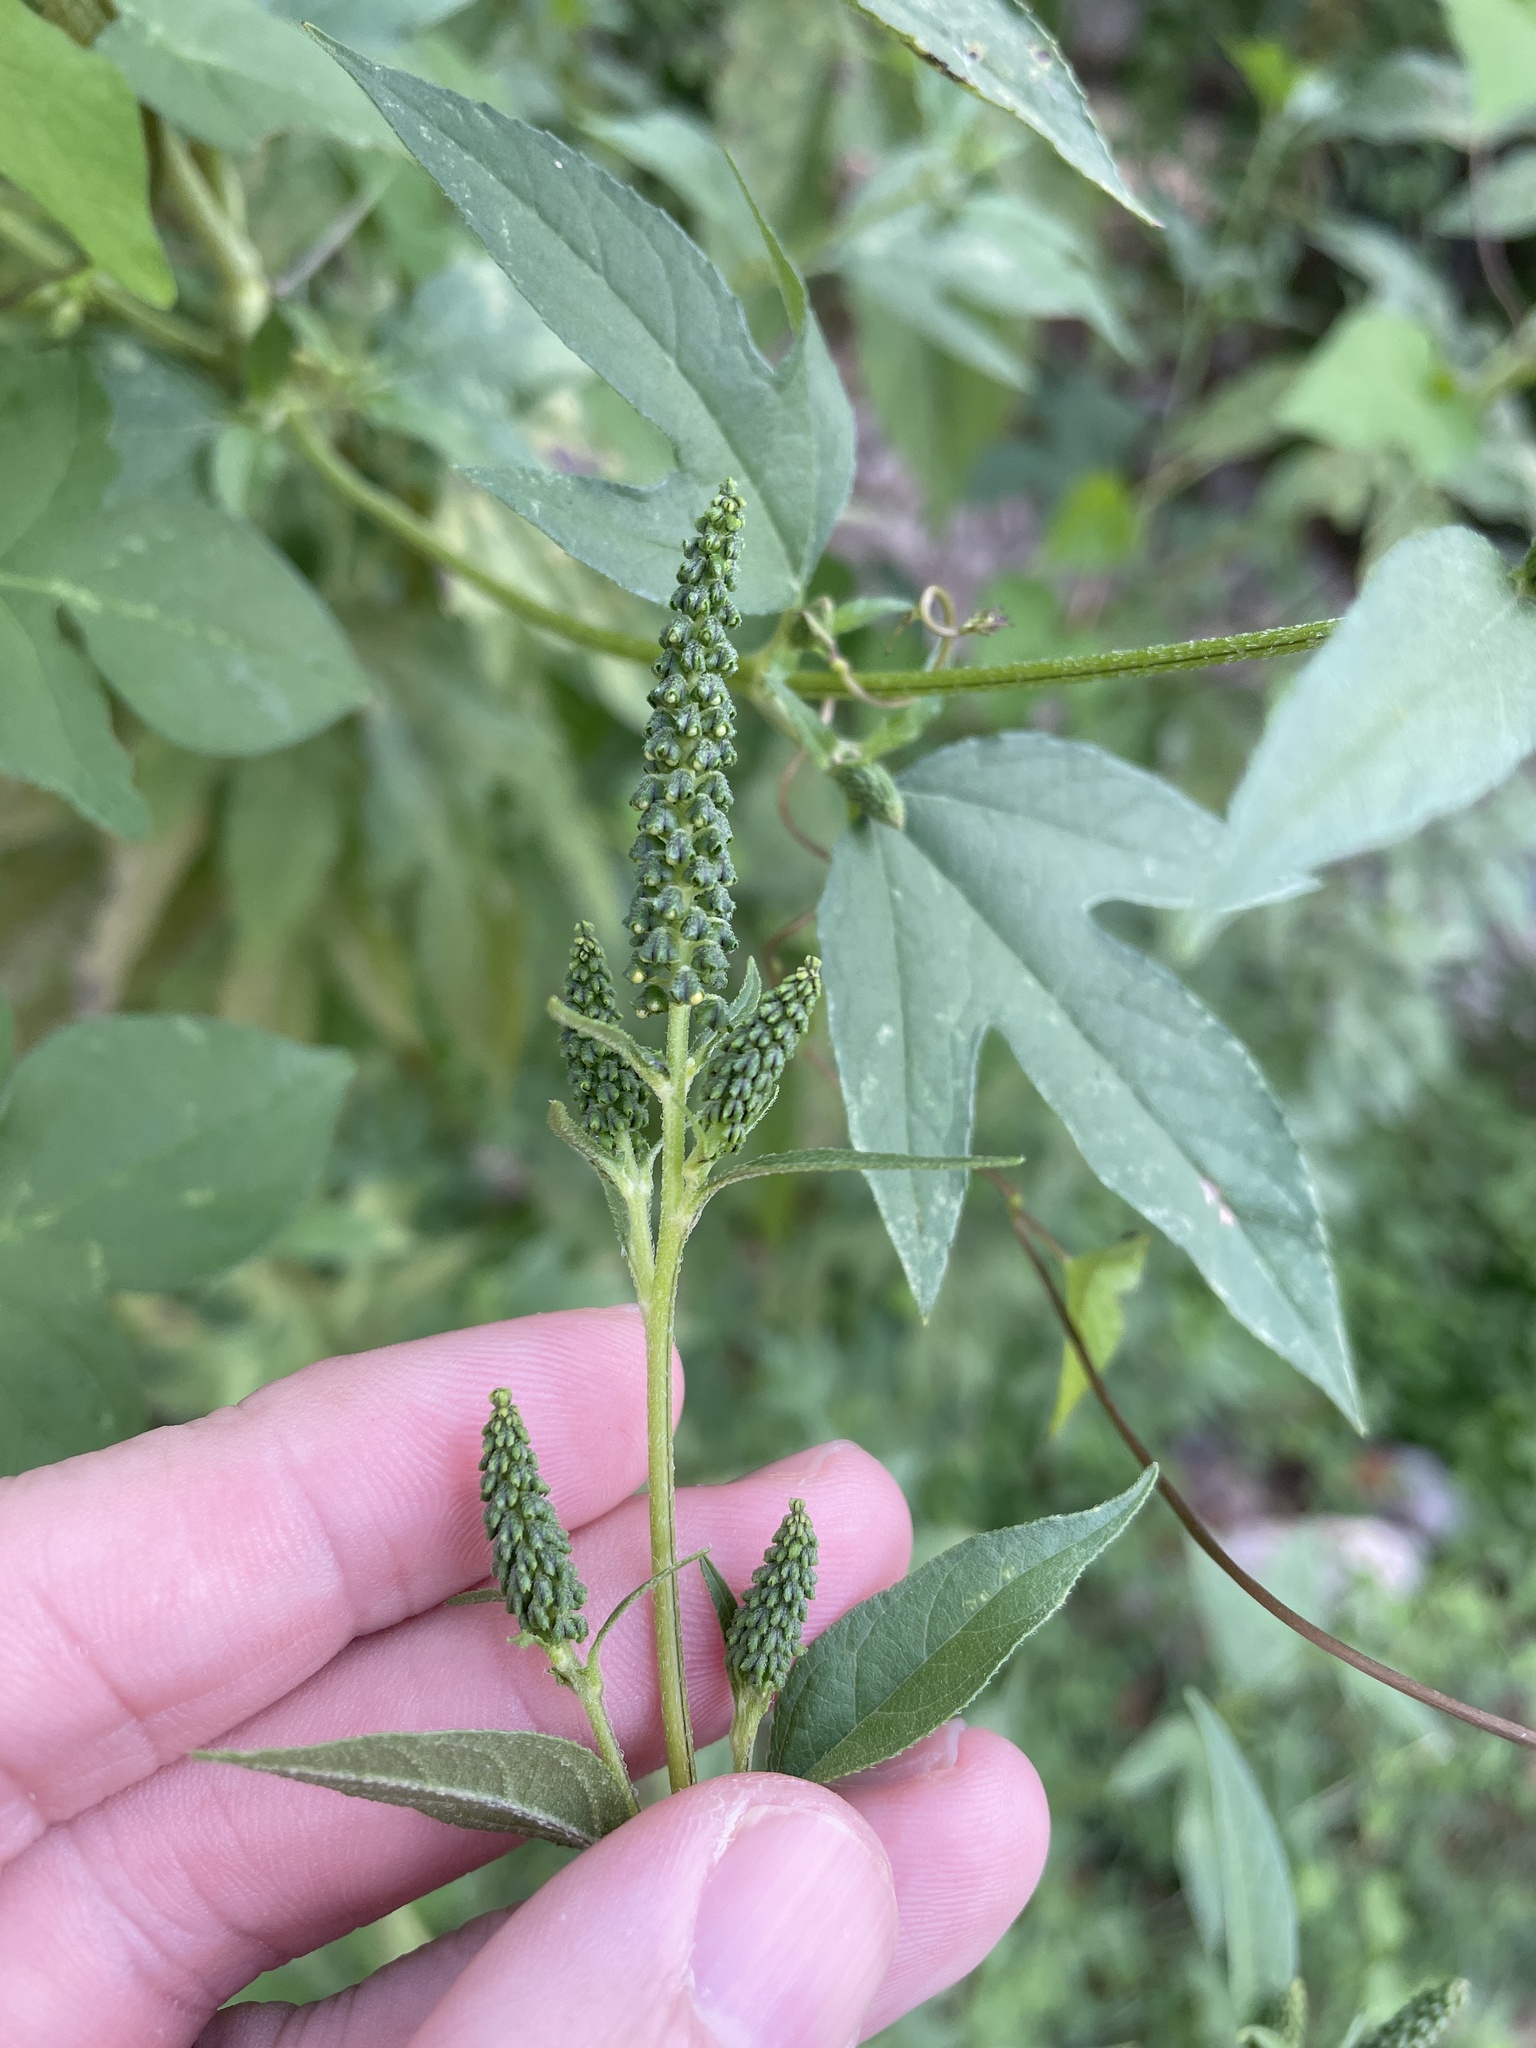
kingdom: Plantae
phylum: Tracheophyta
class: Magnoliopsida
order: Asterales
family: Asteraceae
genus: Ambrosia
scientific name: Ambrosia trifida
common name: Giant ragweed
